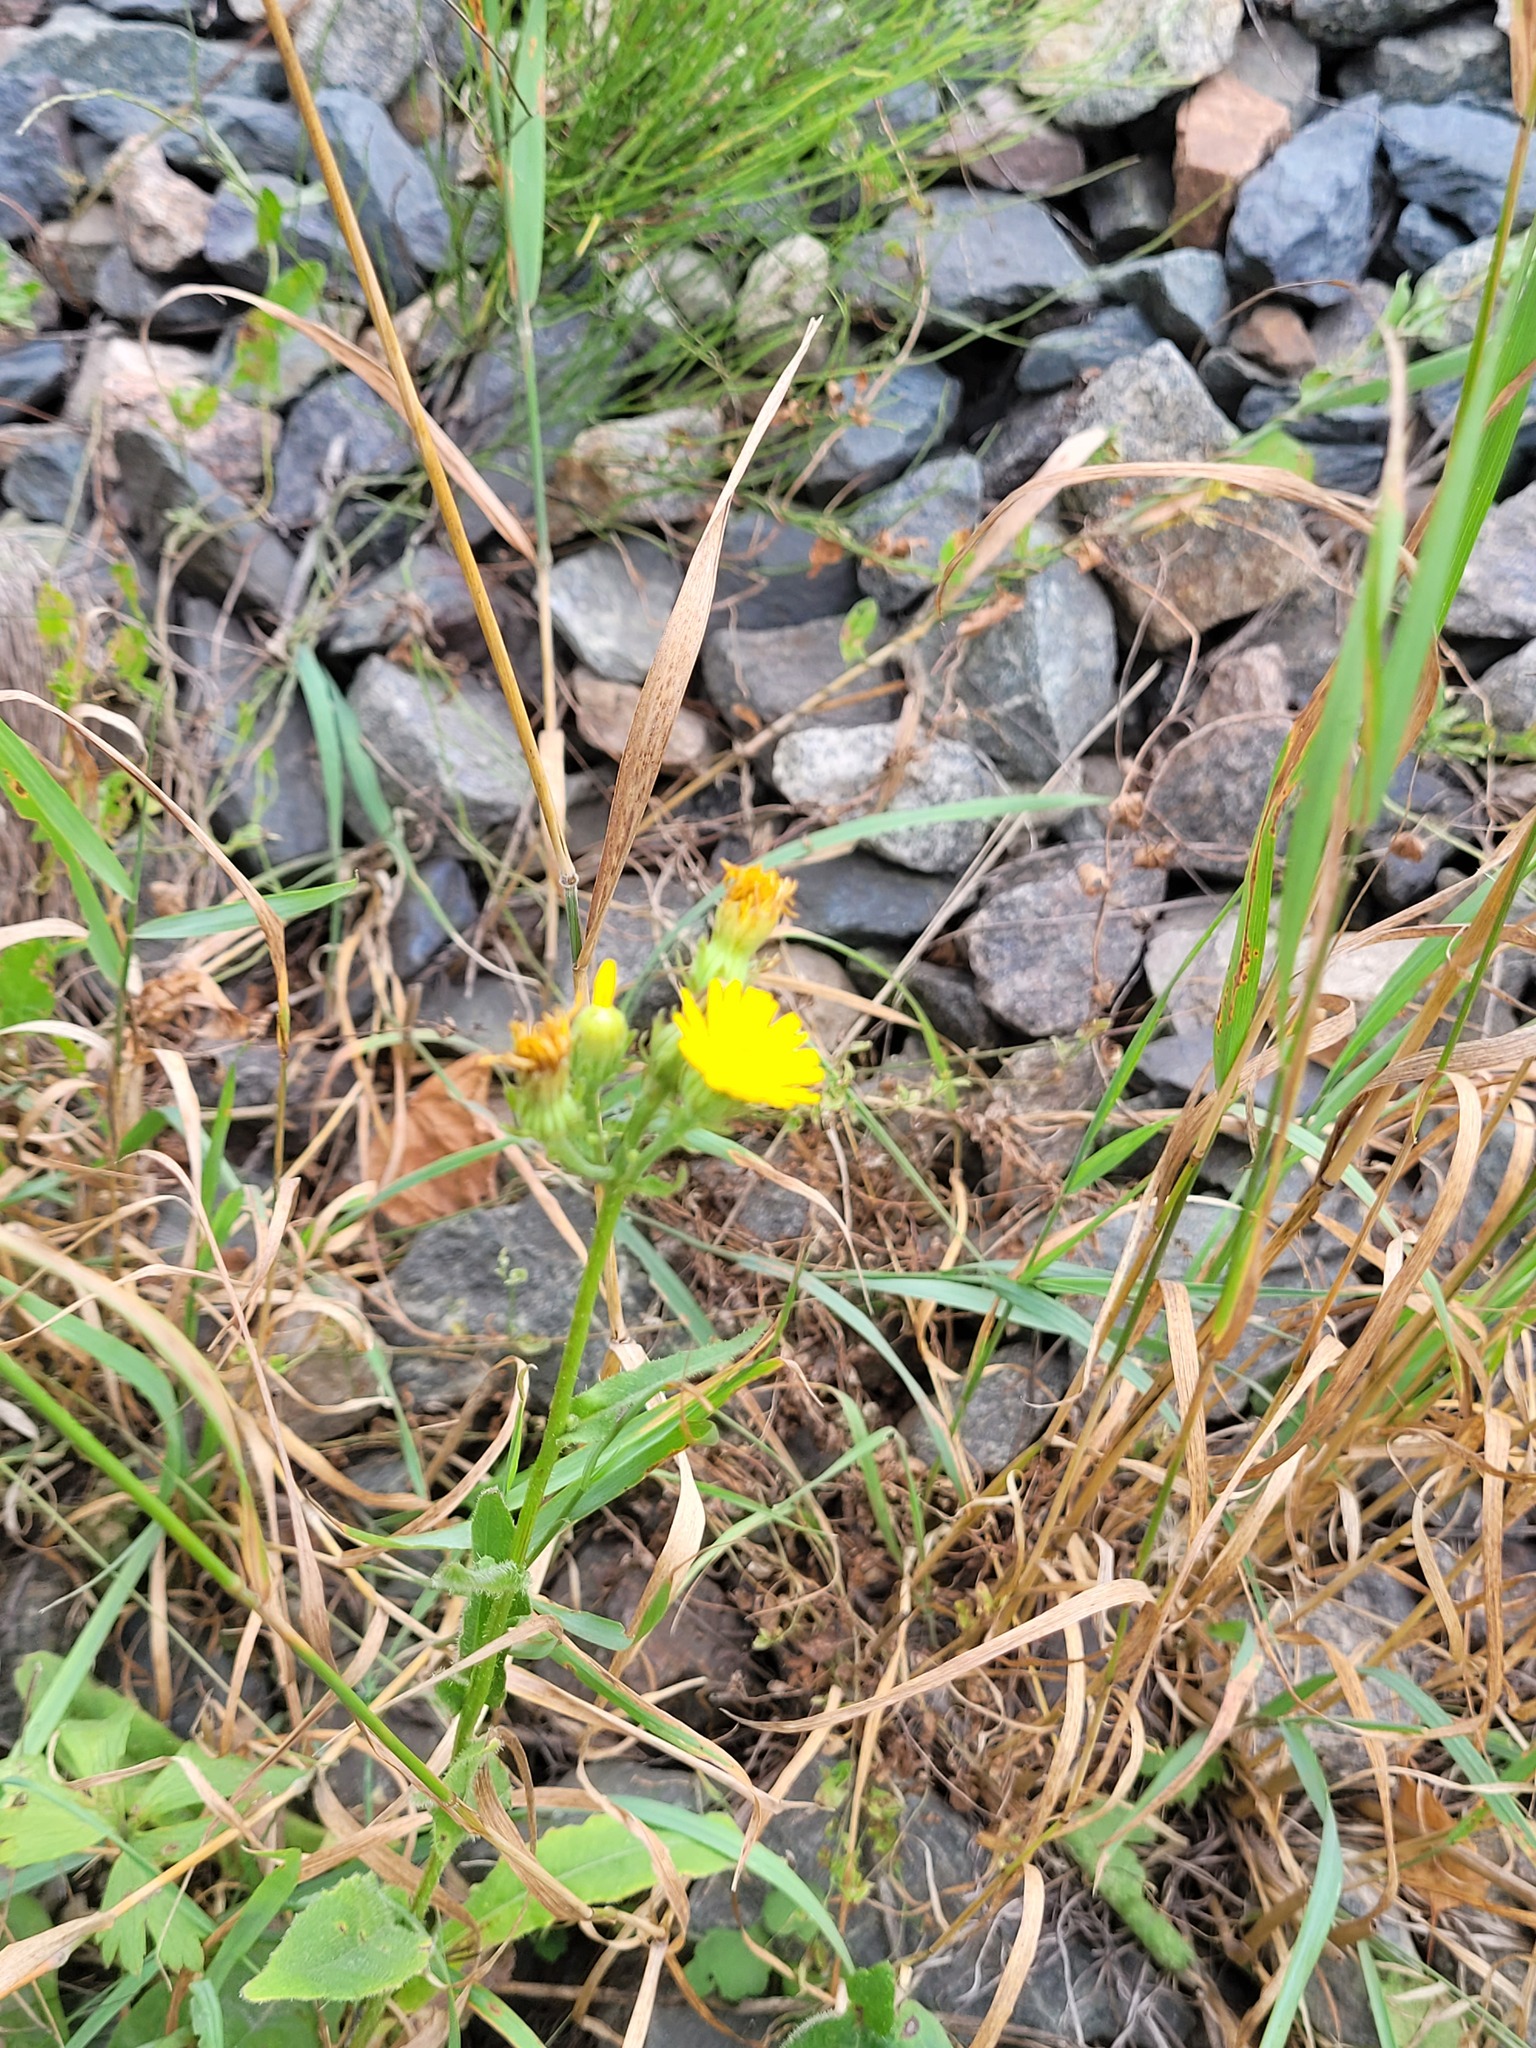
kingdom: Plantae
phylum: Tracheophyta
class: Magnoliopsida
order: Asterales
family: Asteraceae
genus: Picris
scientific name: Picris hieracioides
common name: Hawkweed oxtongue
